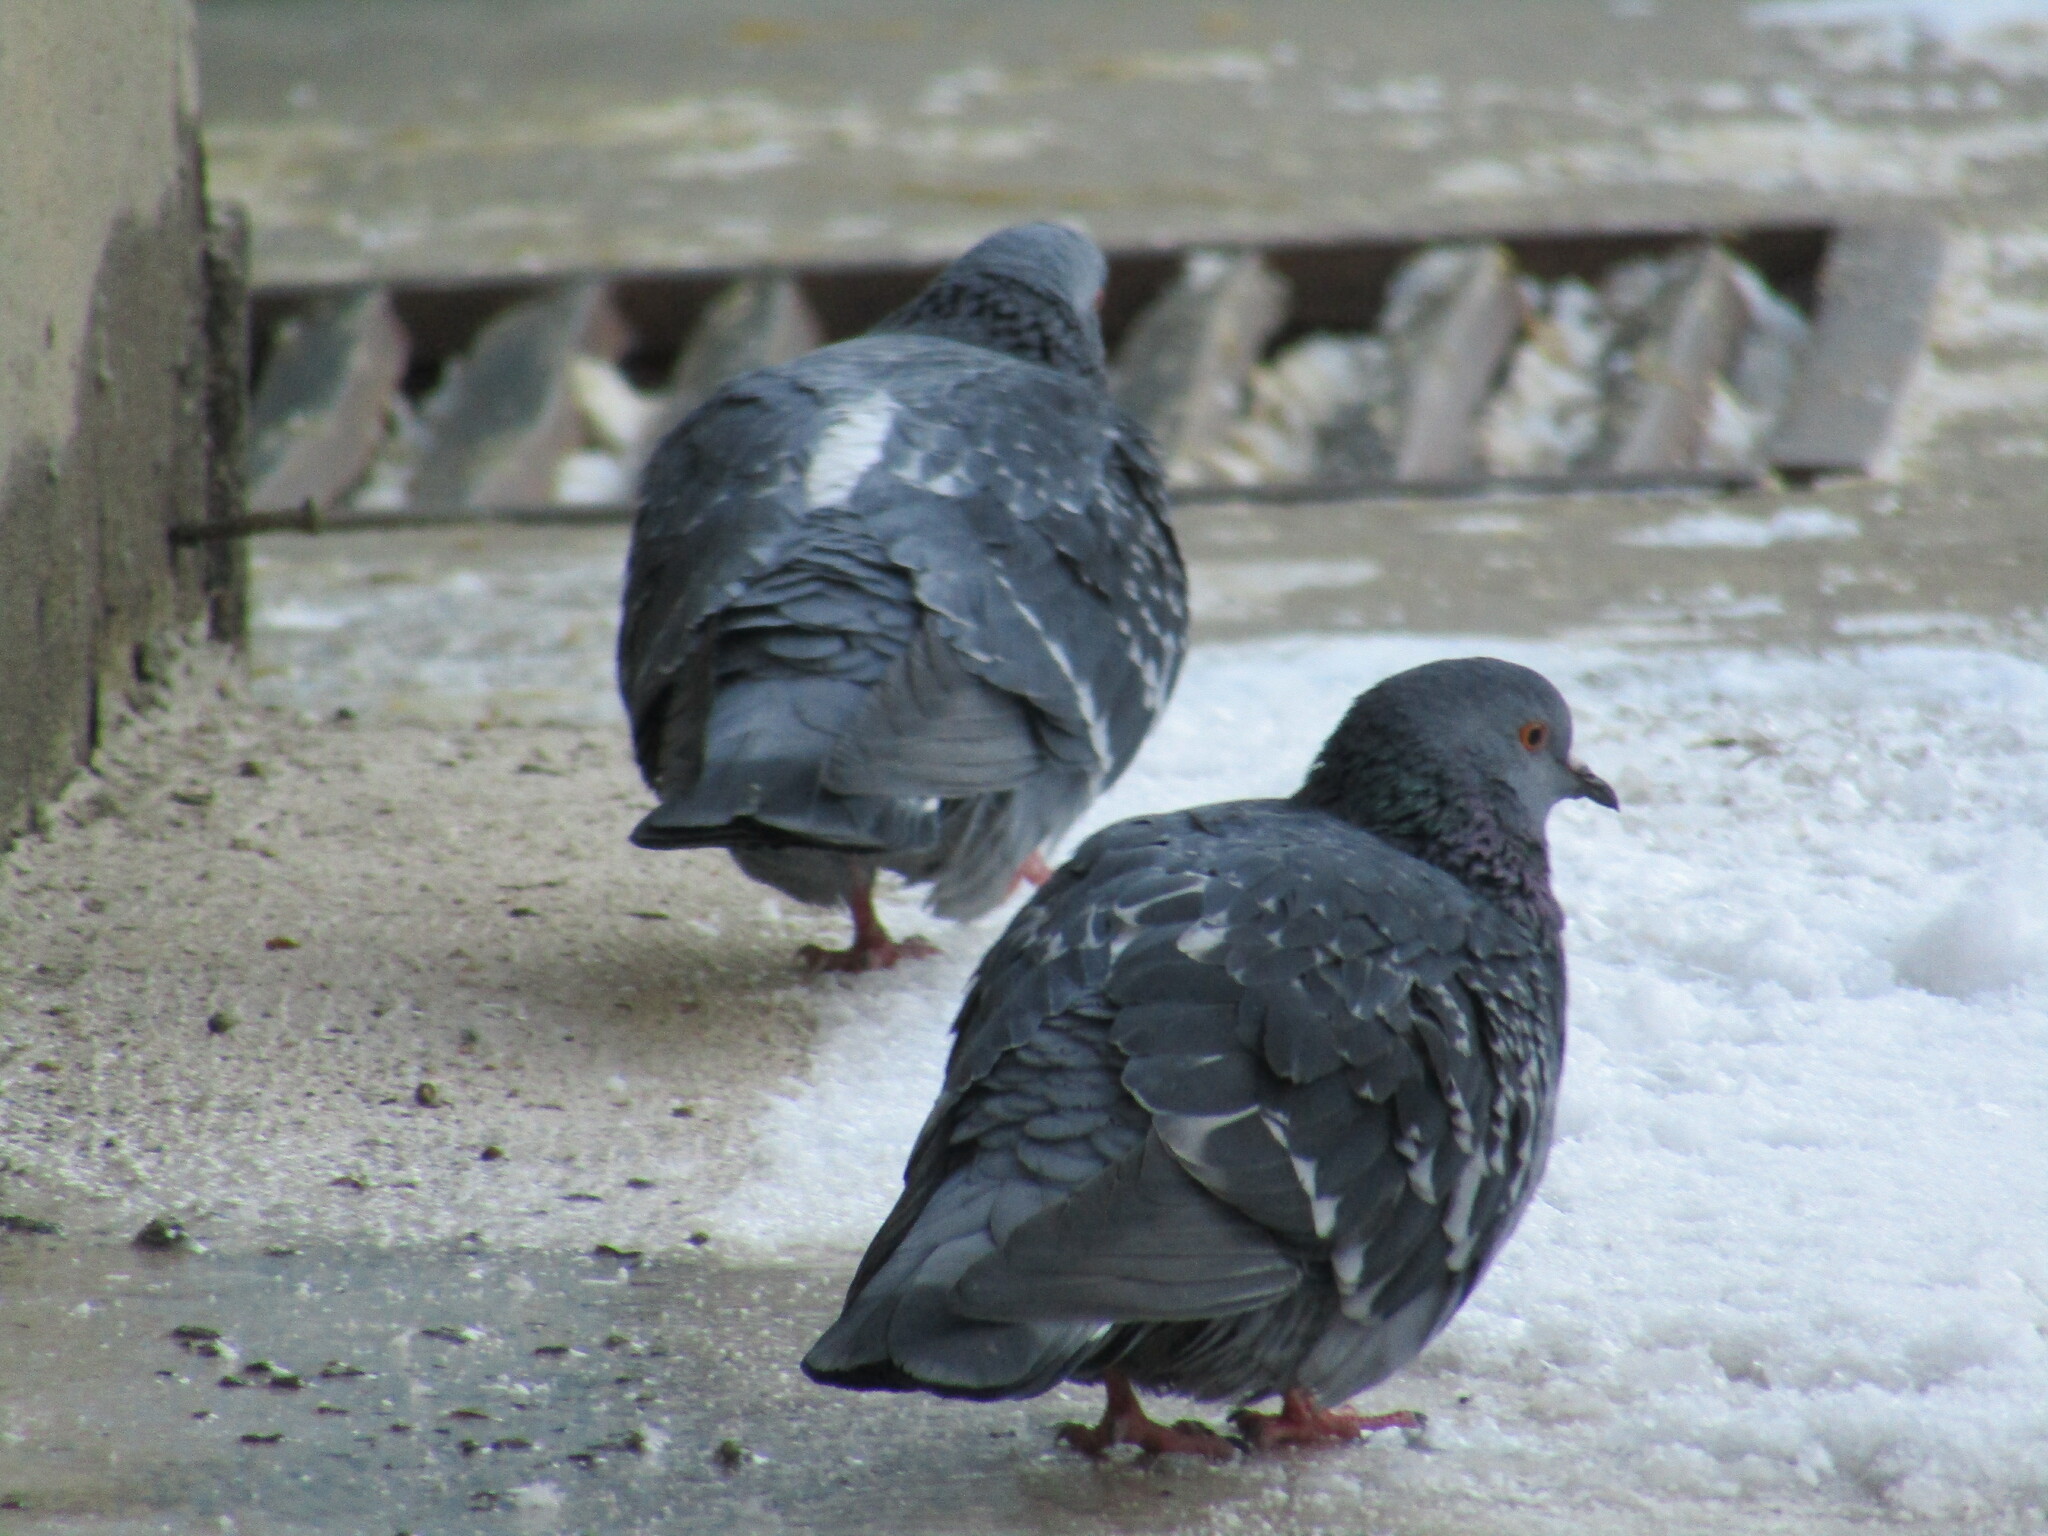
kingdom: Animalia
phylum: Chordata
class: Aves
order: Columbiformes
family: Columbidae
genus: Columba
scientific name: Columba livia
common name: Rock pigeon
